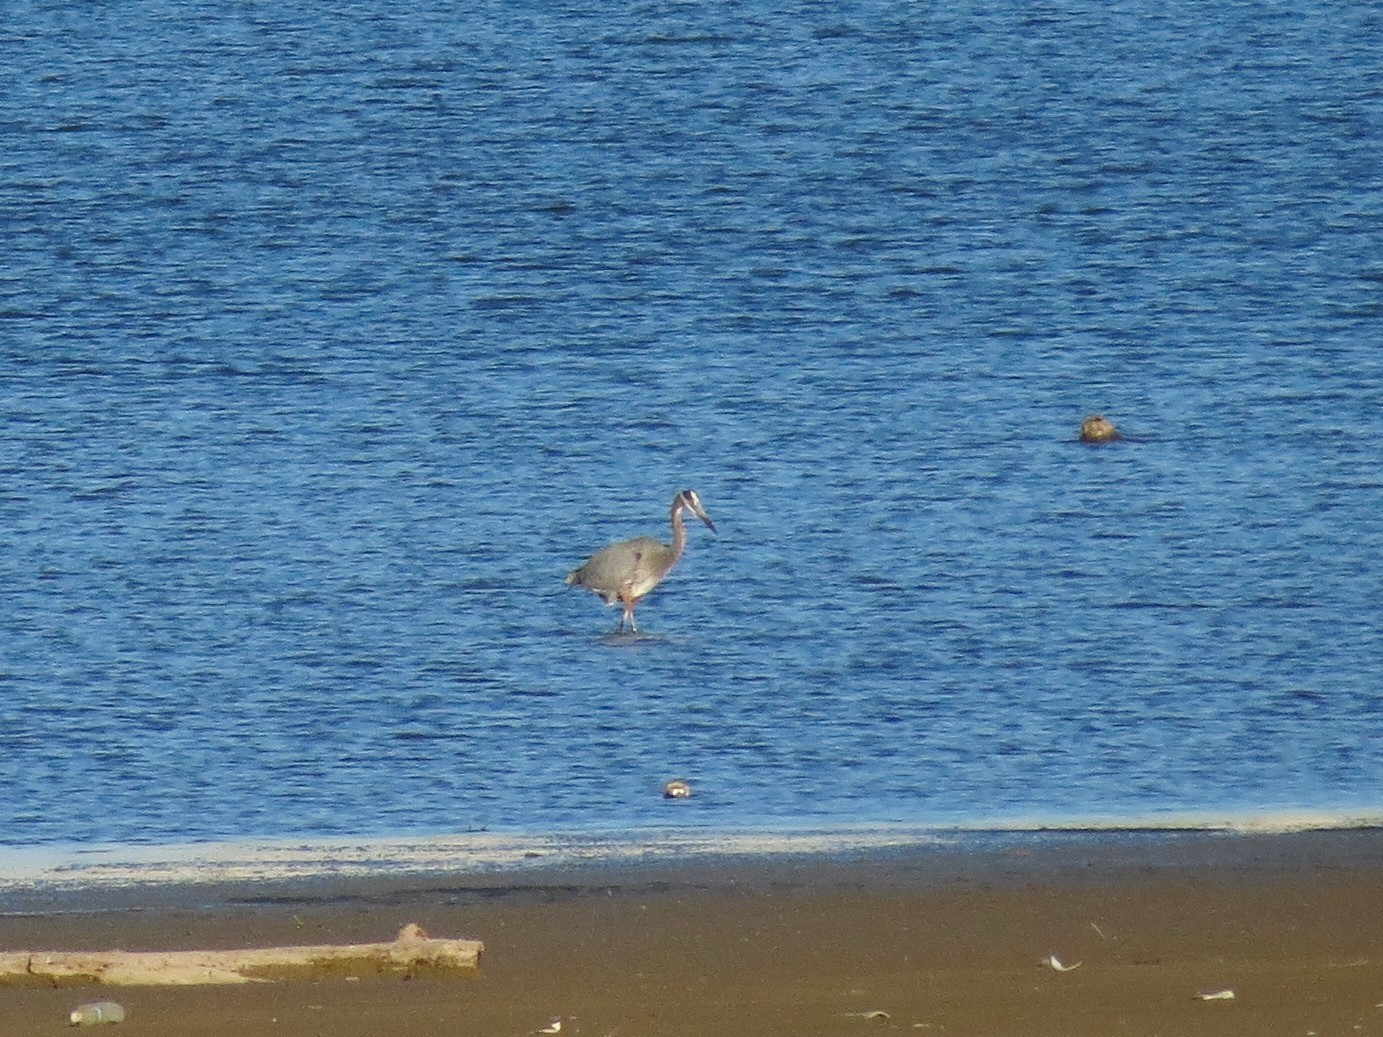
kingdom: Animalia
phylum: Chordata
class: Aves
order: Pelecaniformes
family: Ardeidae
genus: Ardea
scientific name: Ardea herodias
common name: Great blue heron
